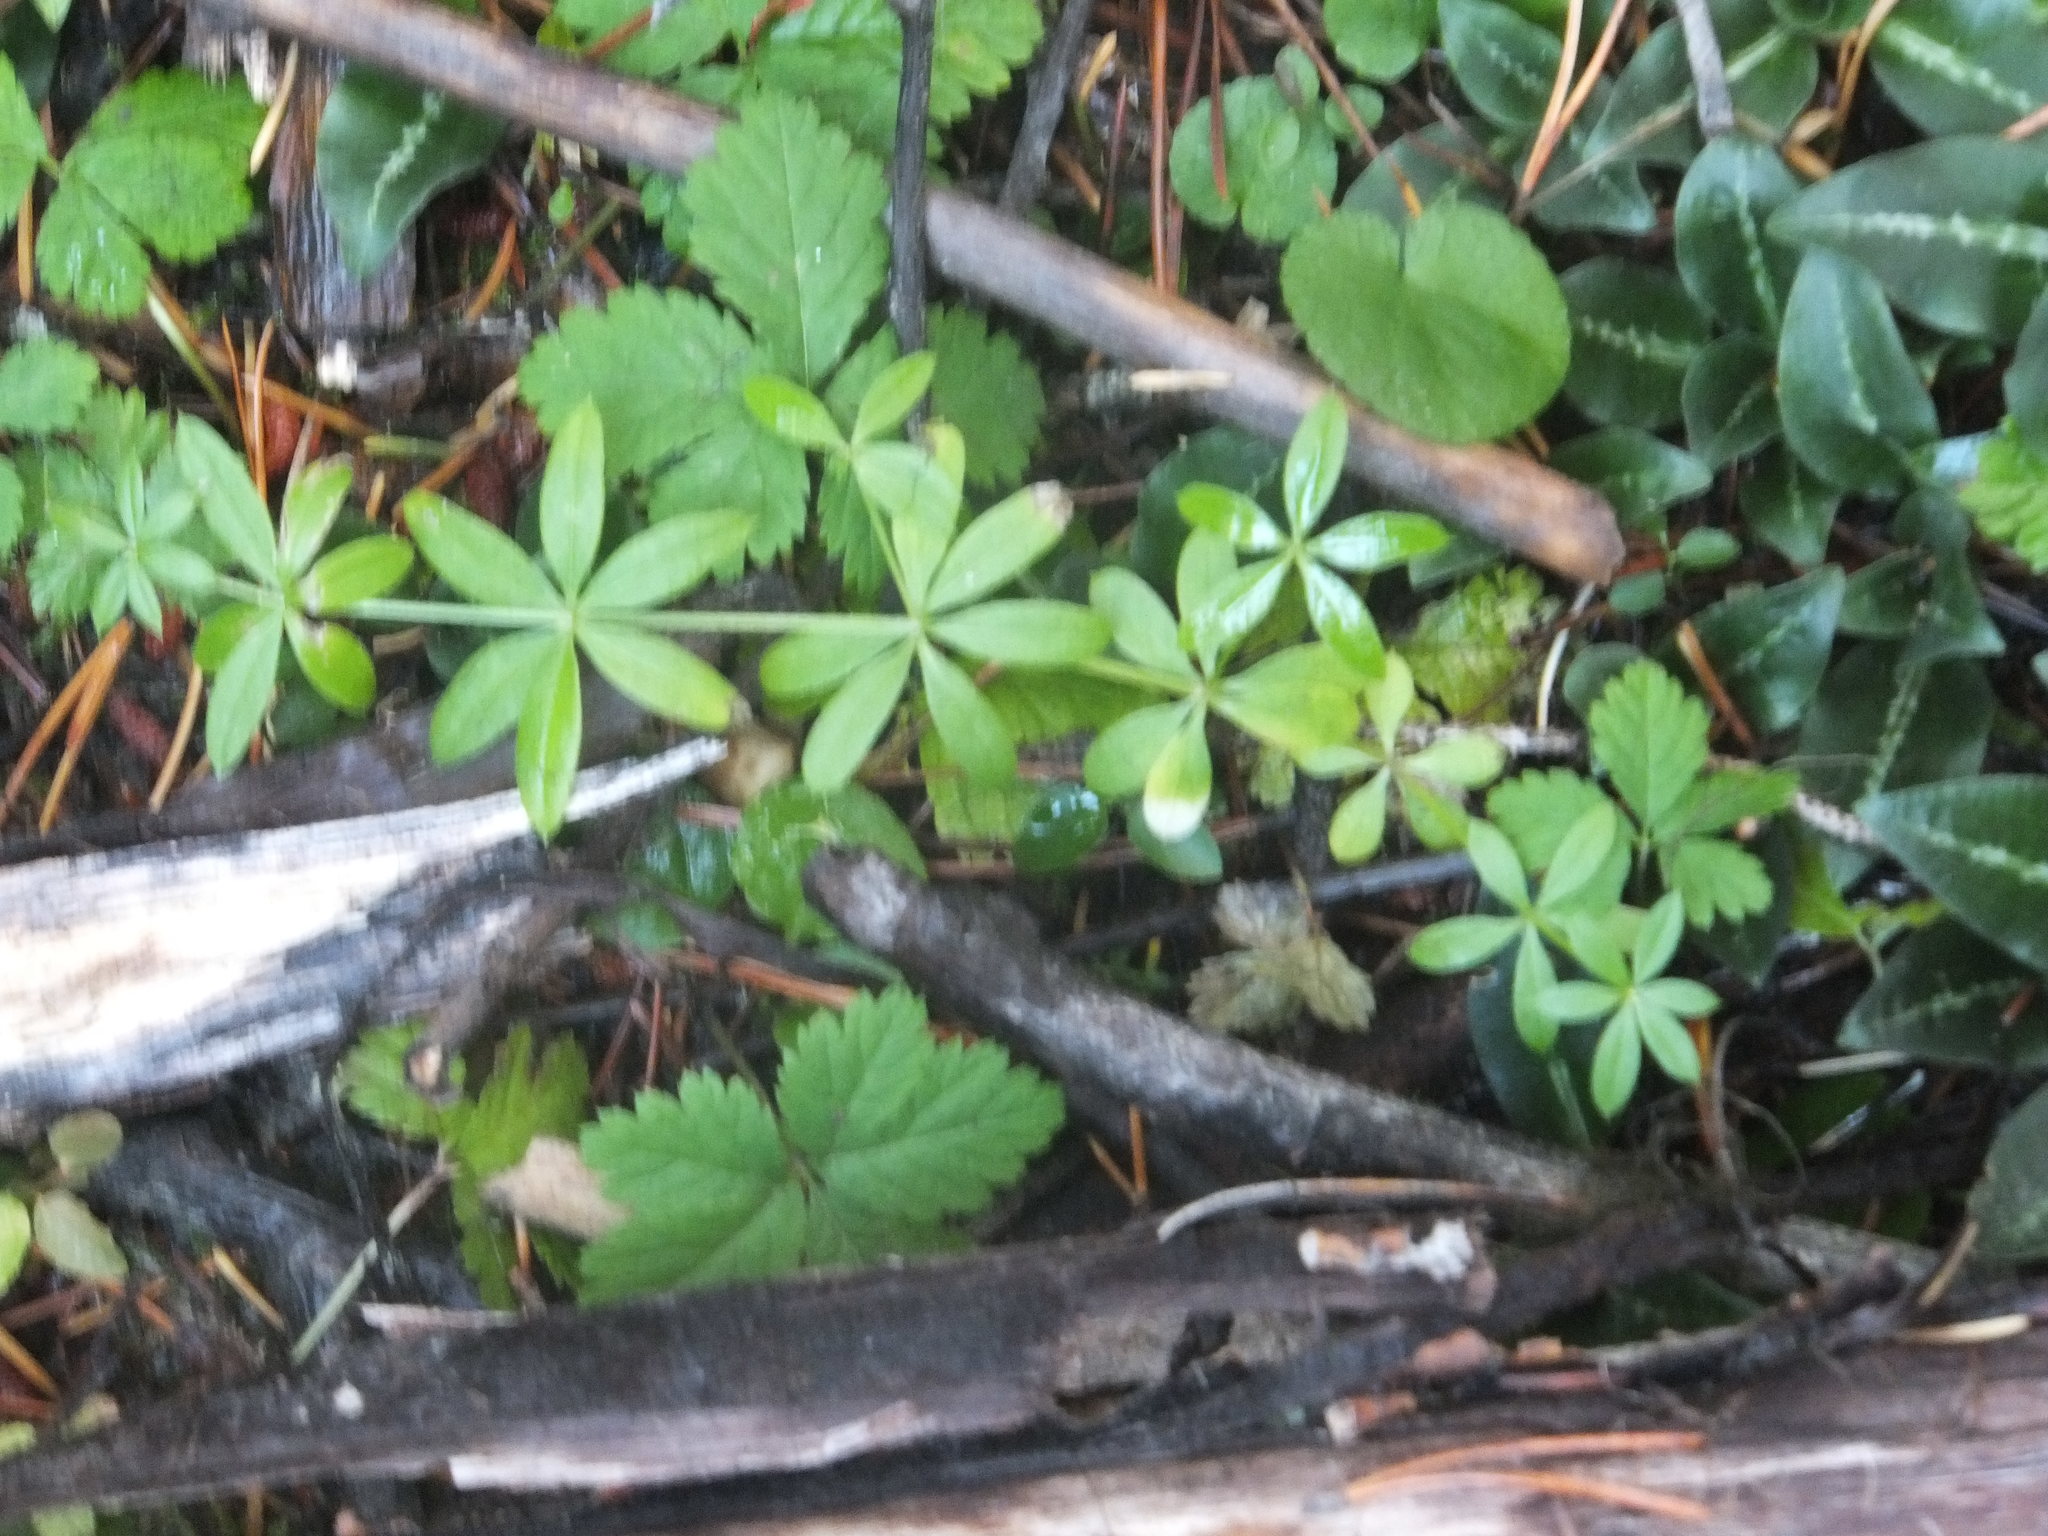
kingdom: Plantae
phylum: Tracheophyta
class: Magnoliopsida
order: Gentianales
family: Rubiaceae
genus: Galium
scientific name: Galium triflorum
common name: Fragrant bedstraw
